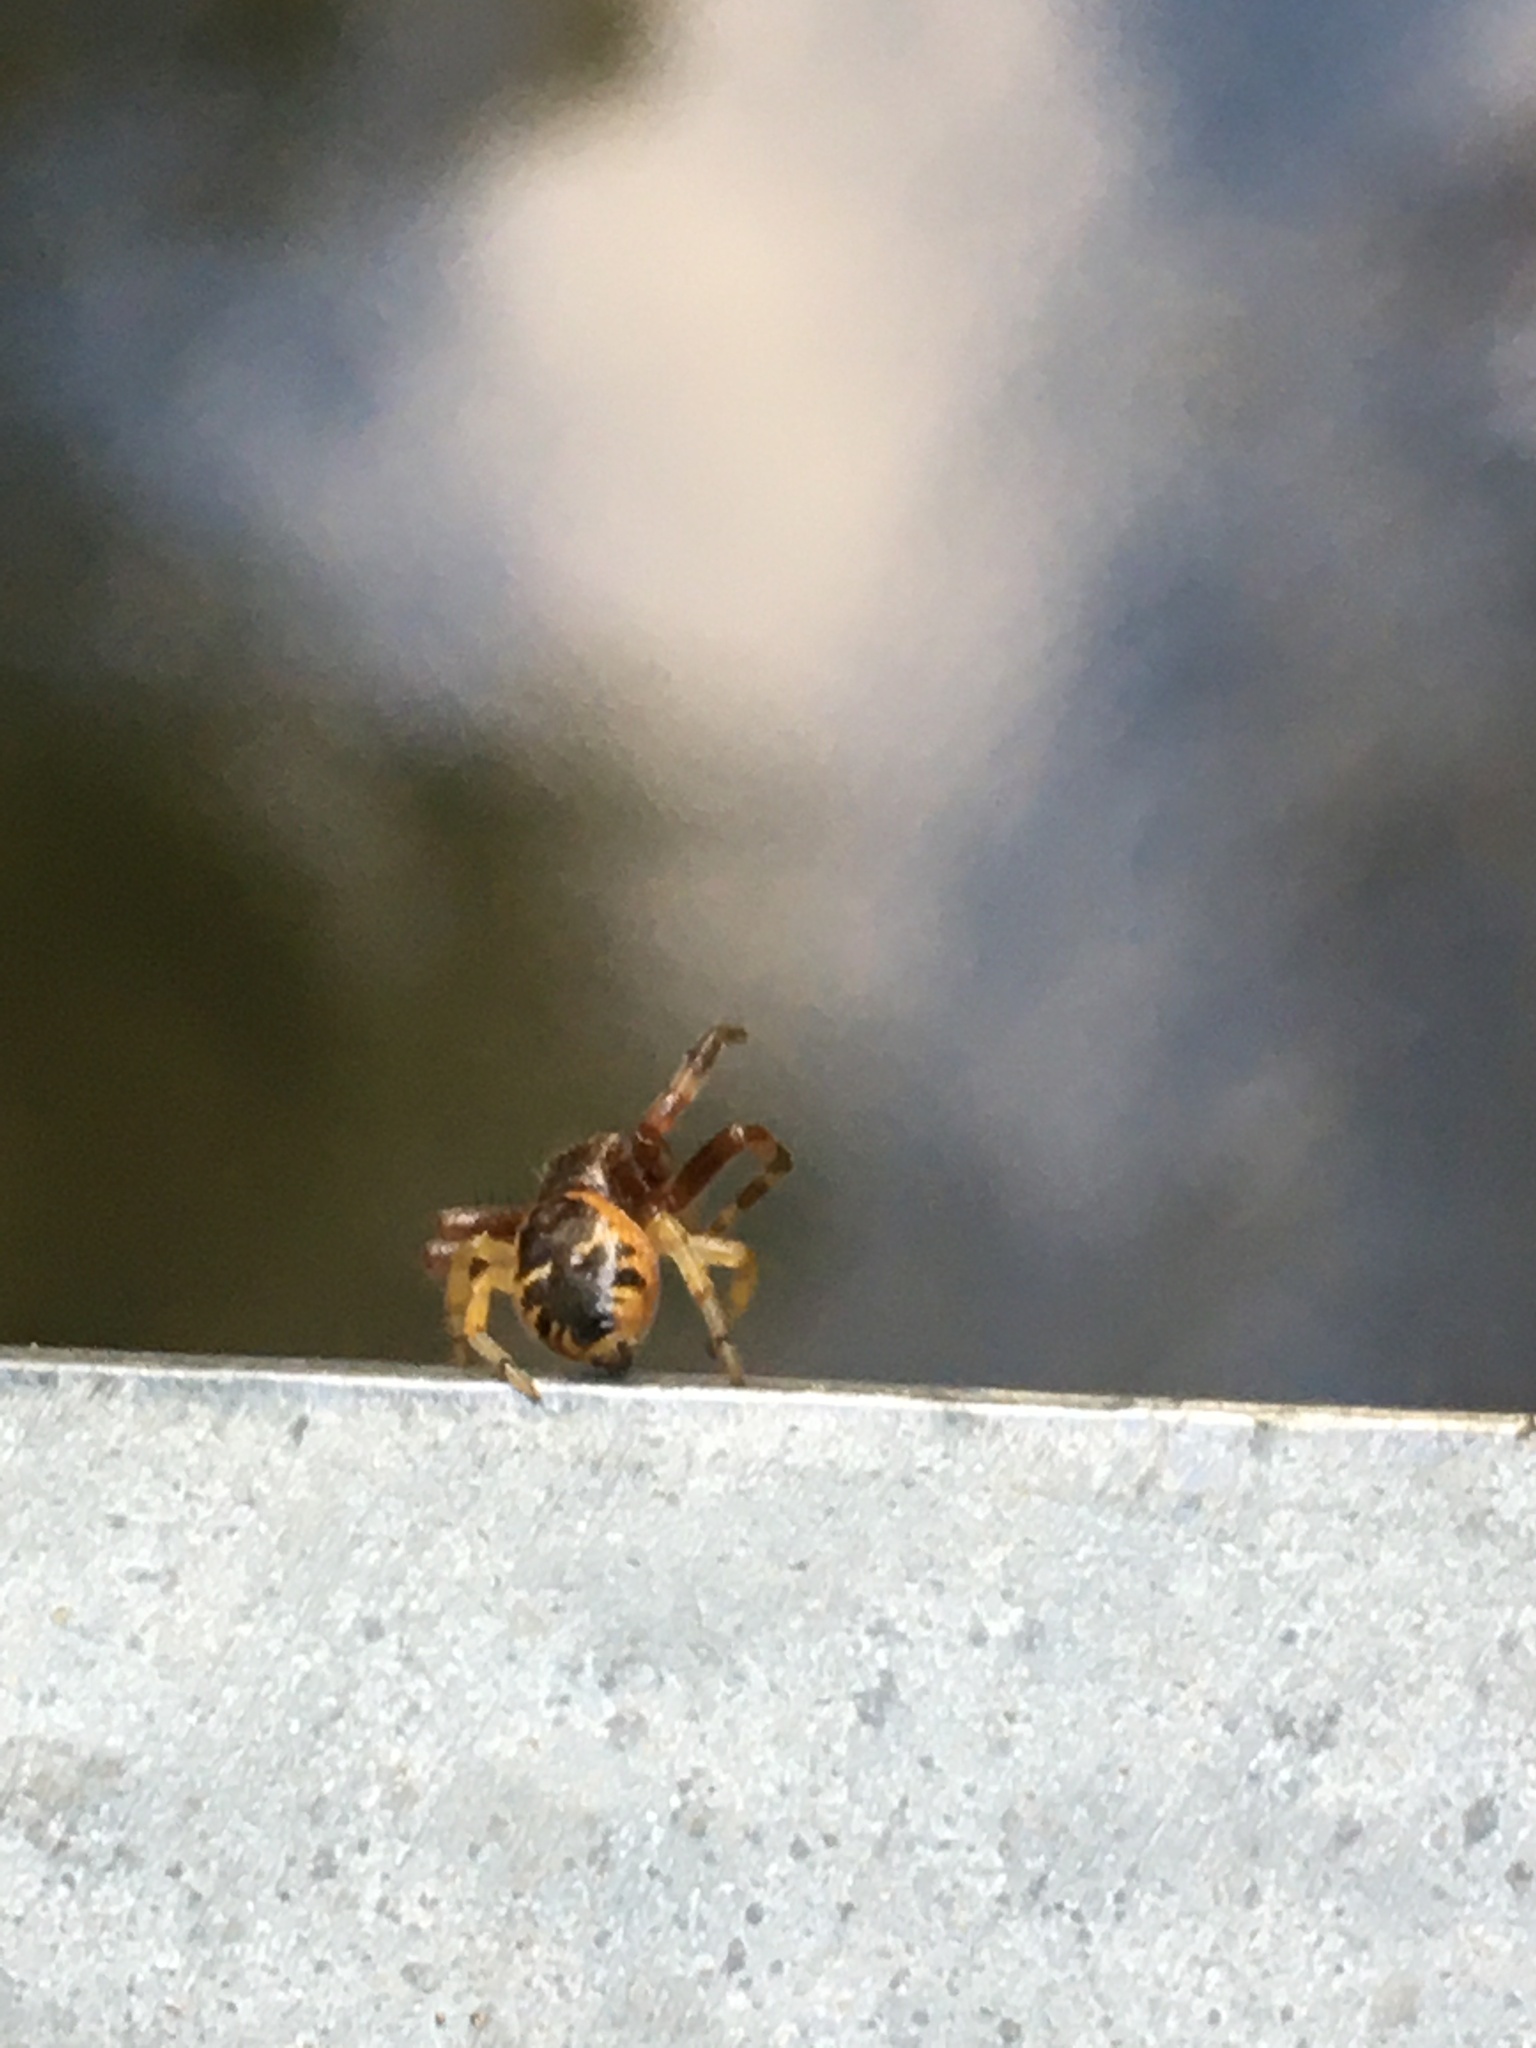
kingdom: Animalia
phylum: Arthropoda
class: Arachnida
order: Araneae
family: Thomisidae
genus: Synema
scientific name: Synema globosum
